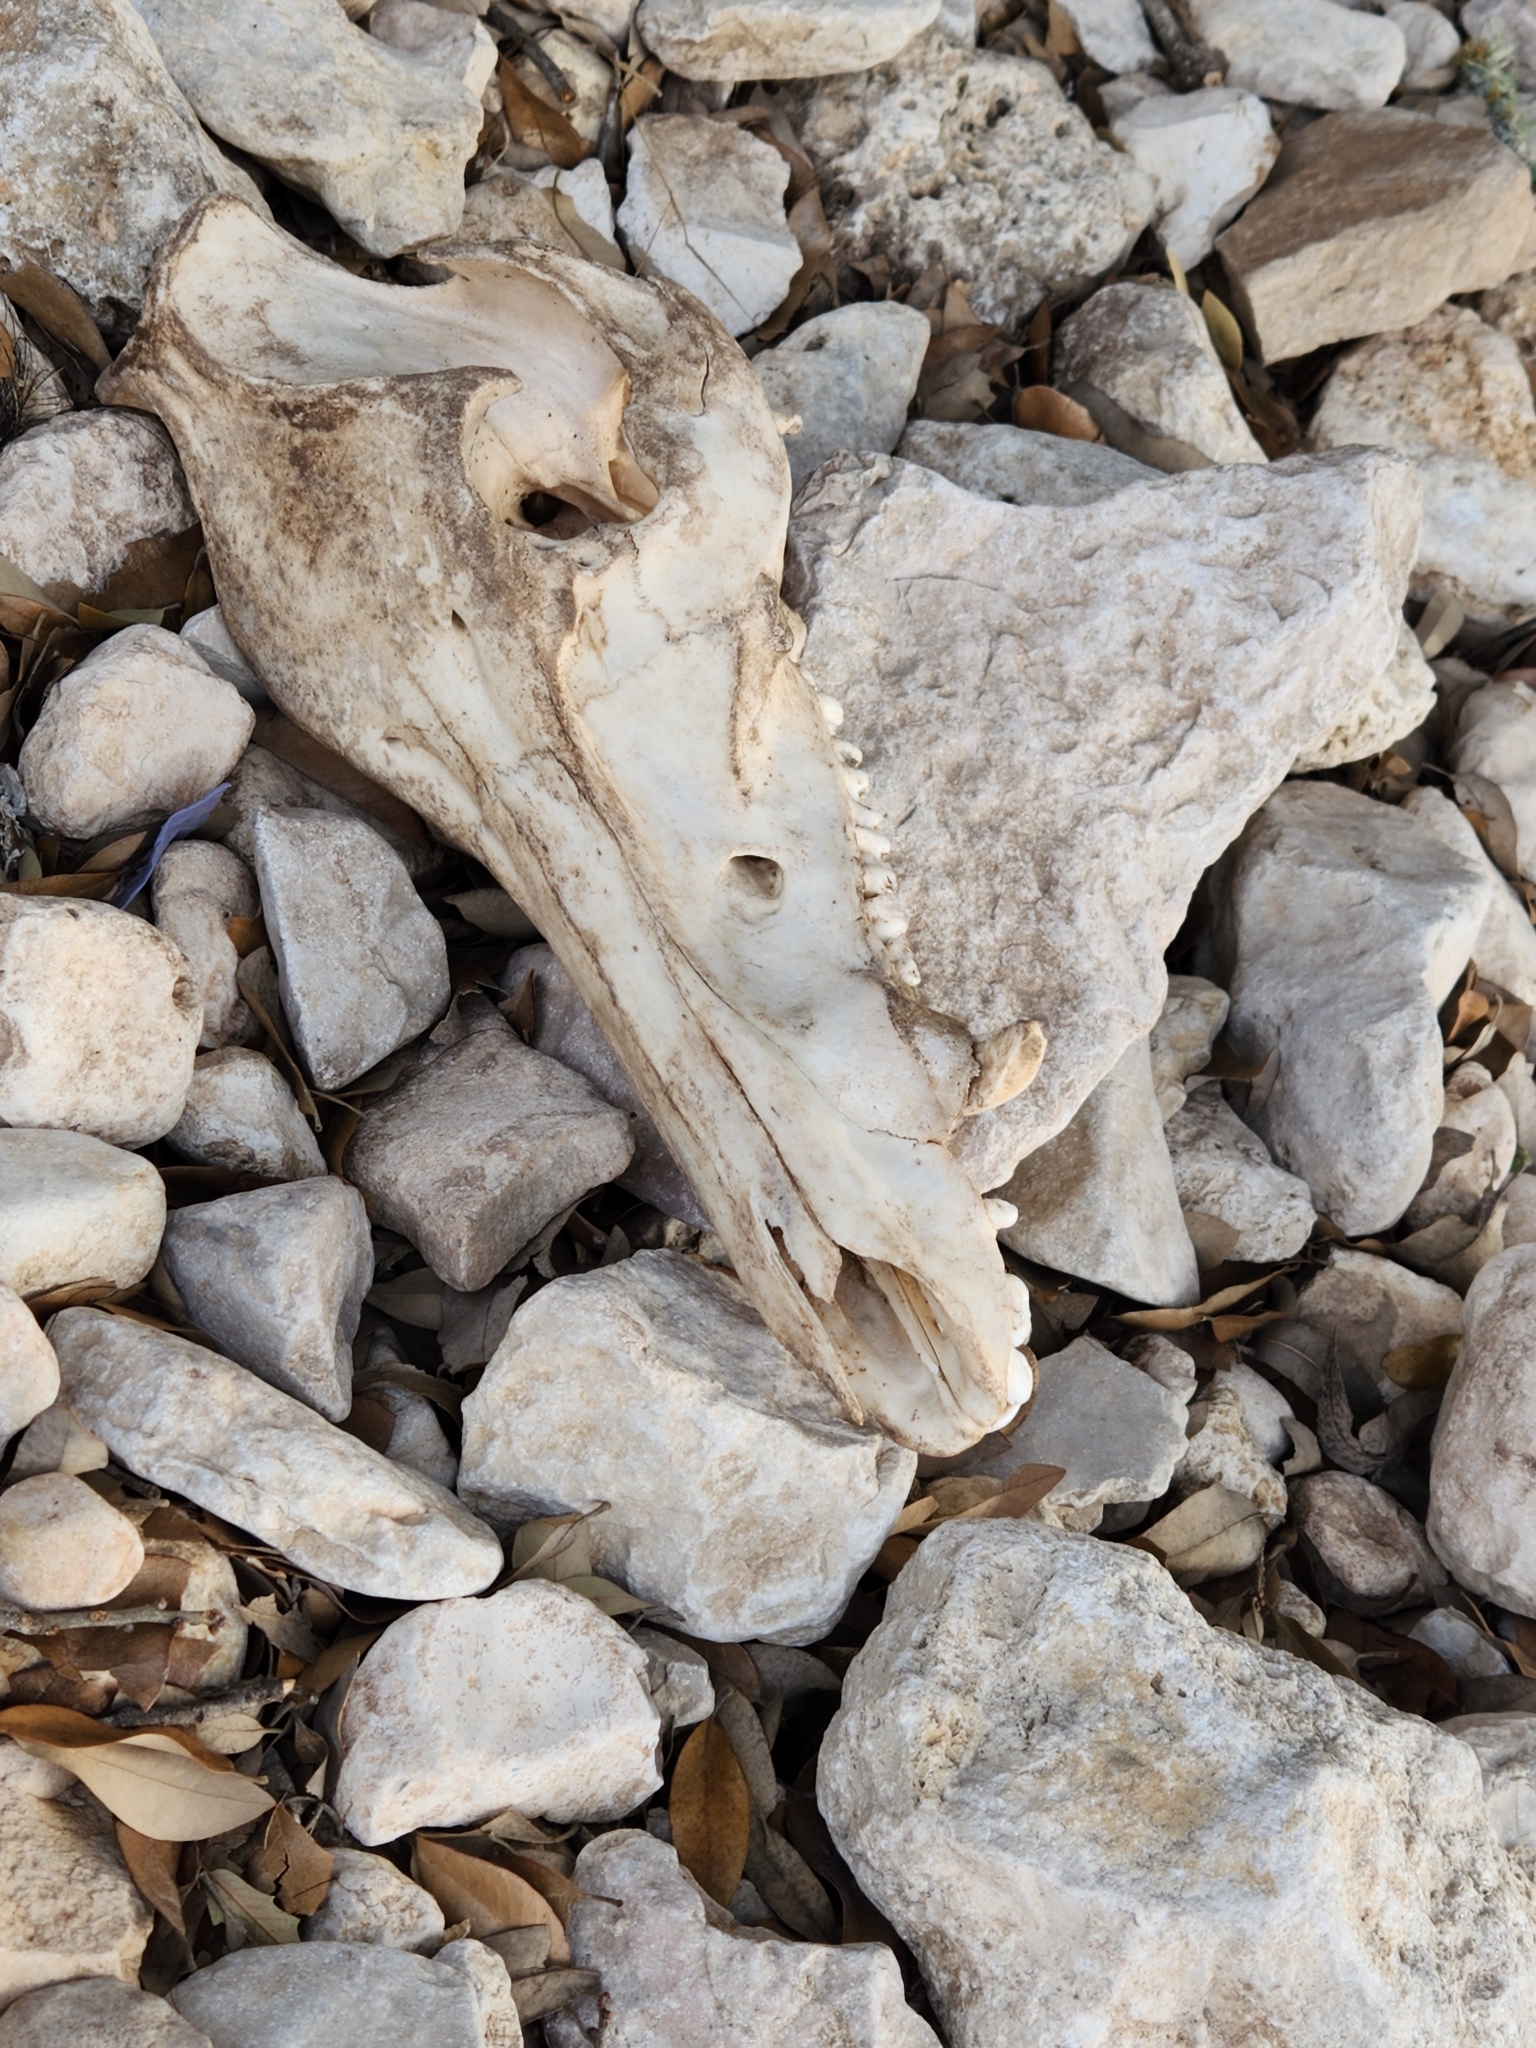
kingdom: Animalia
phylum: Chordata
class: Mammalia
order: Artiodactyla
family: Suidae
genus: Sus
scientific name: Sus scrofa
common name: Wild boar
